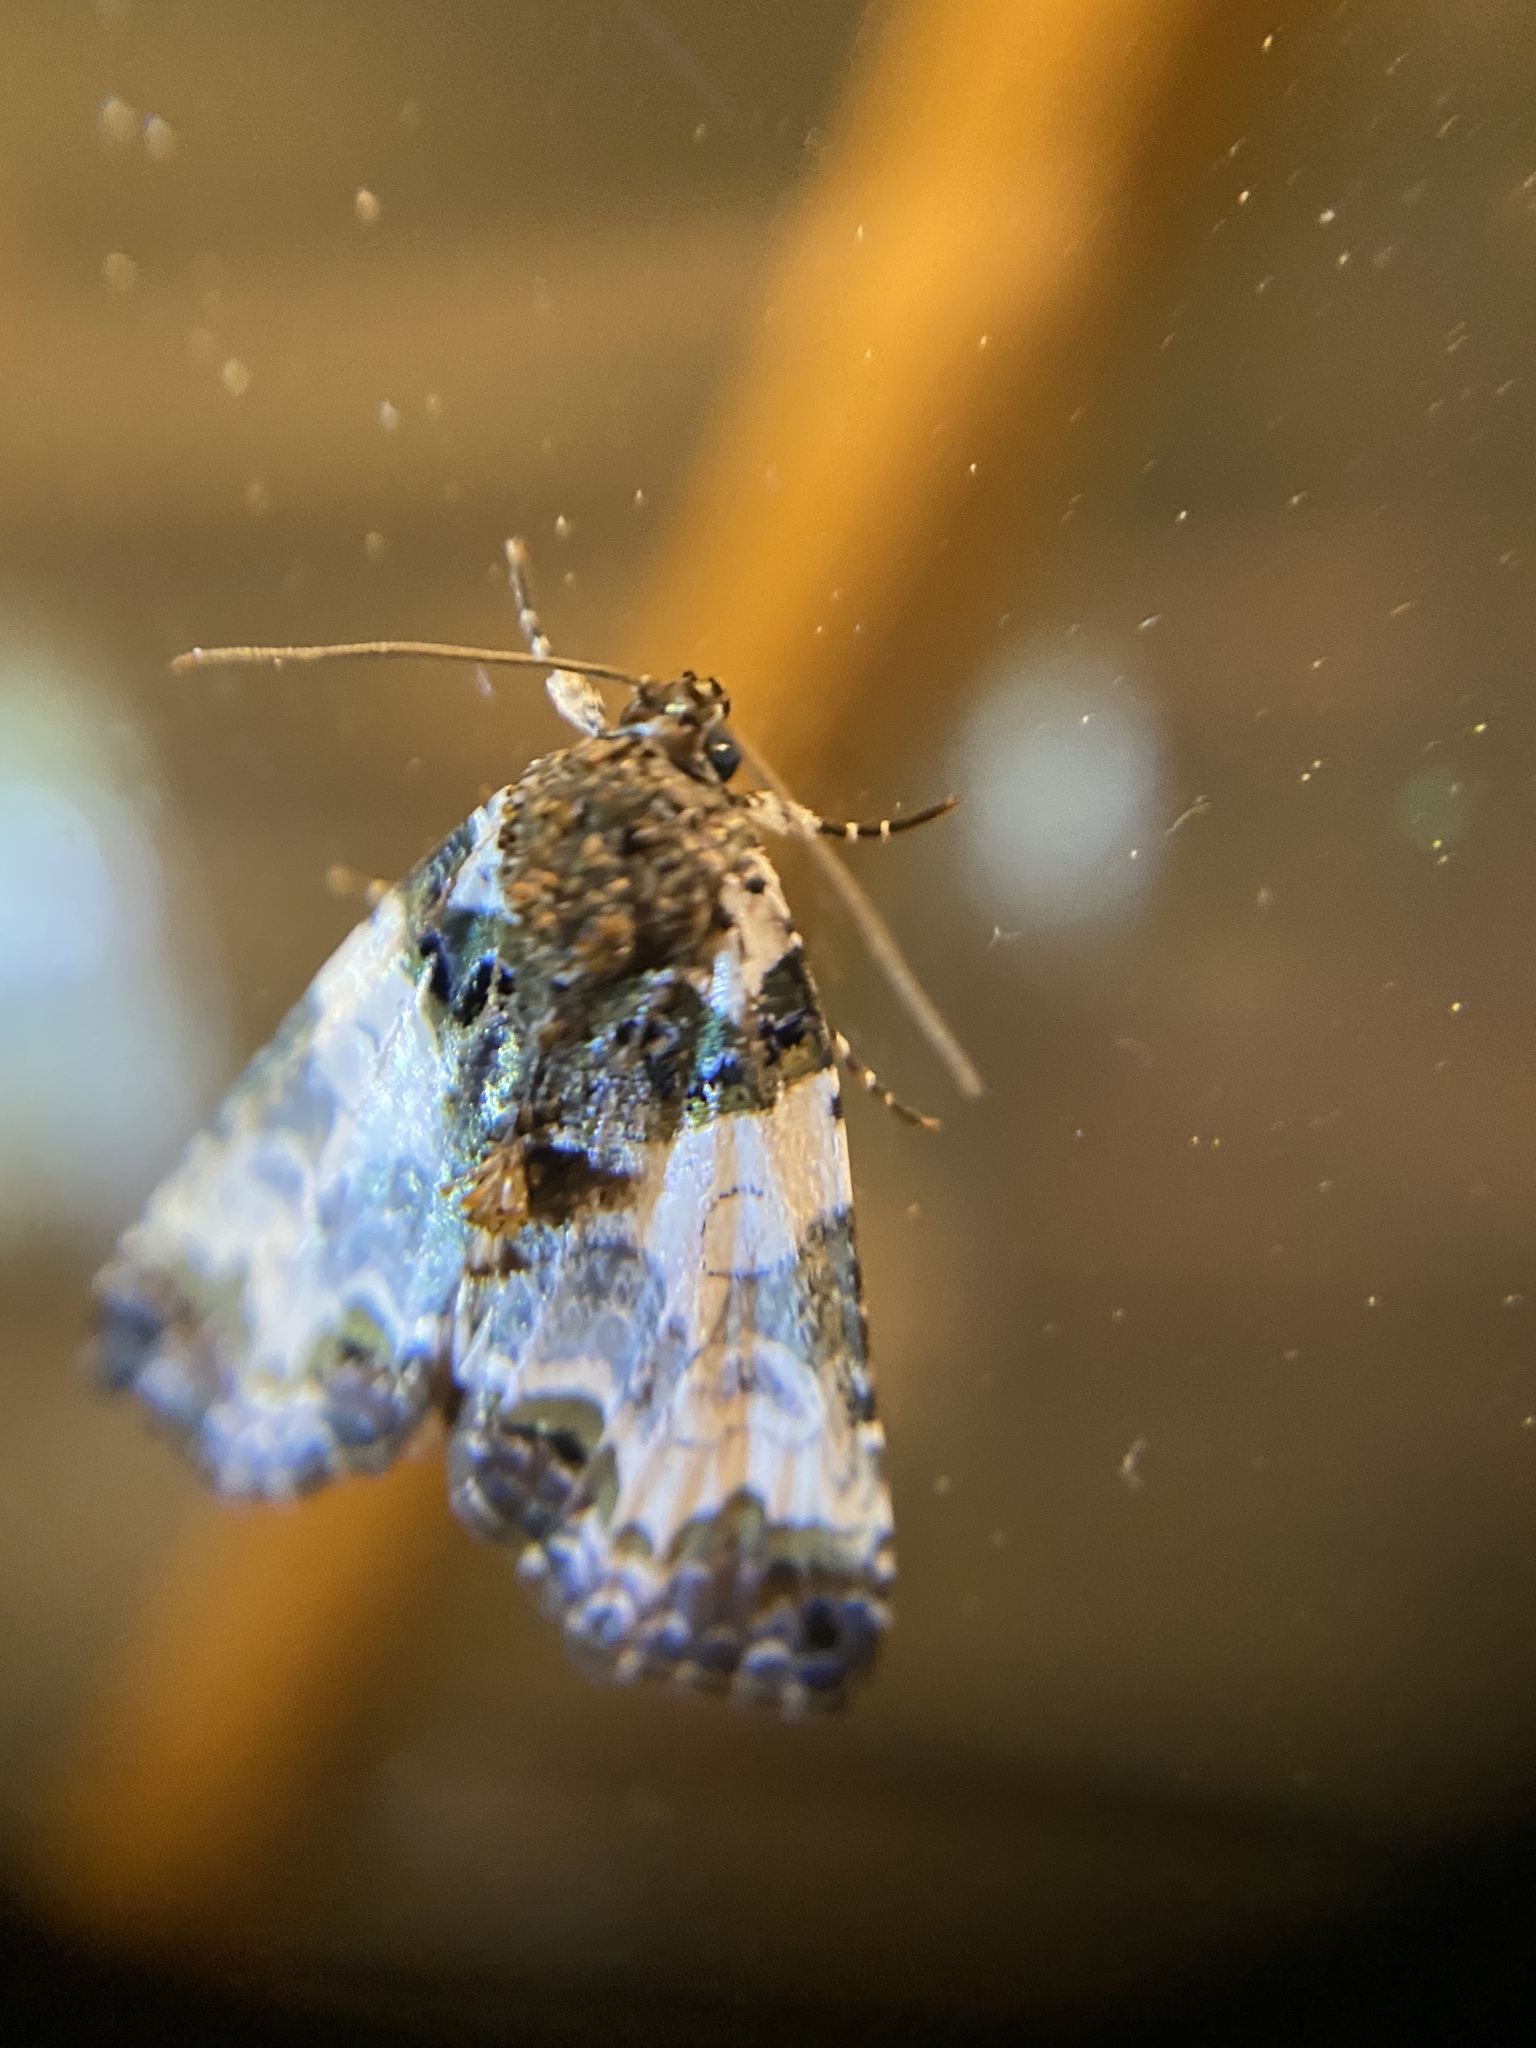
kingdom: Animalia
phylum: Arthropoda
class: Insecta
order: Lepidoptera
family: Noctuidae
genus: Cerma
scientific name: Cerma cerintha
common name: Tufted bird-dropping moth
